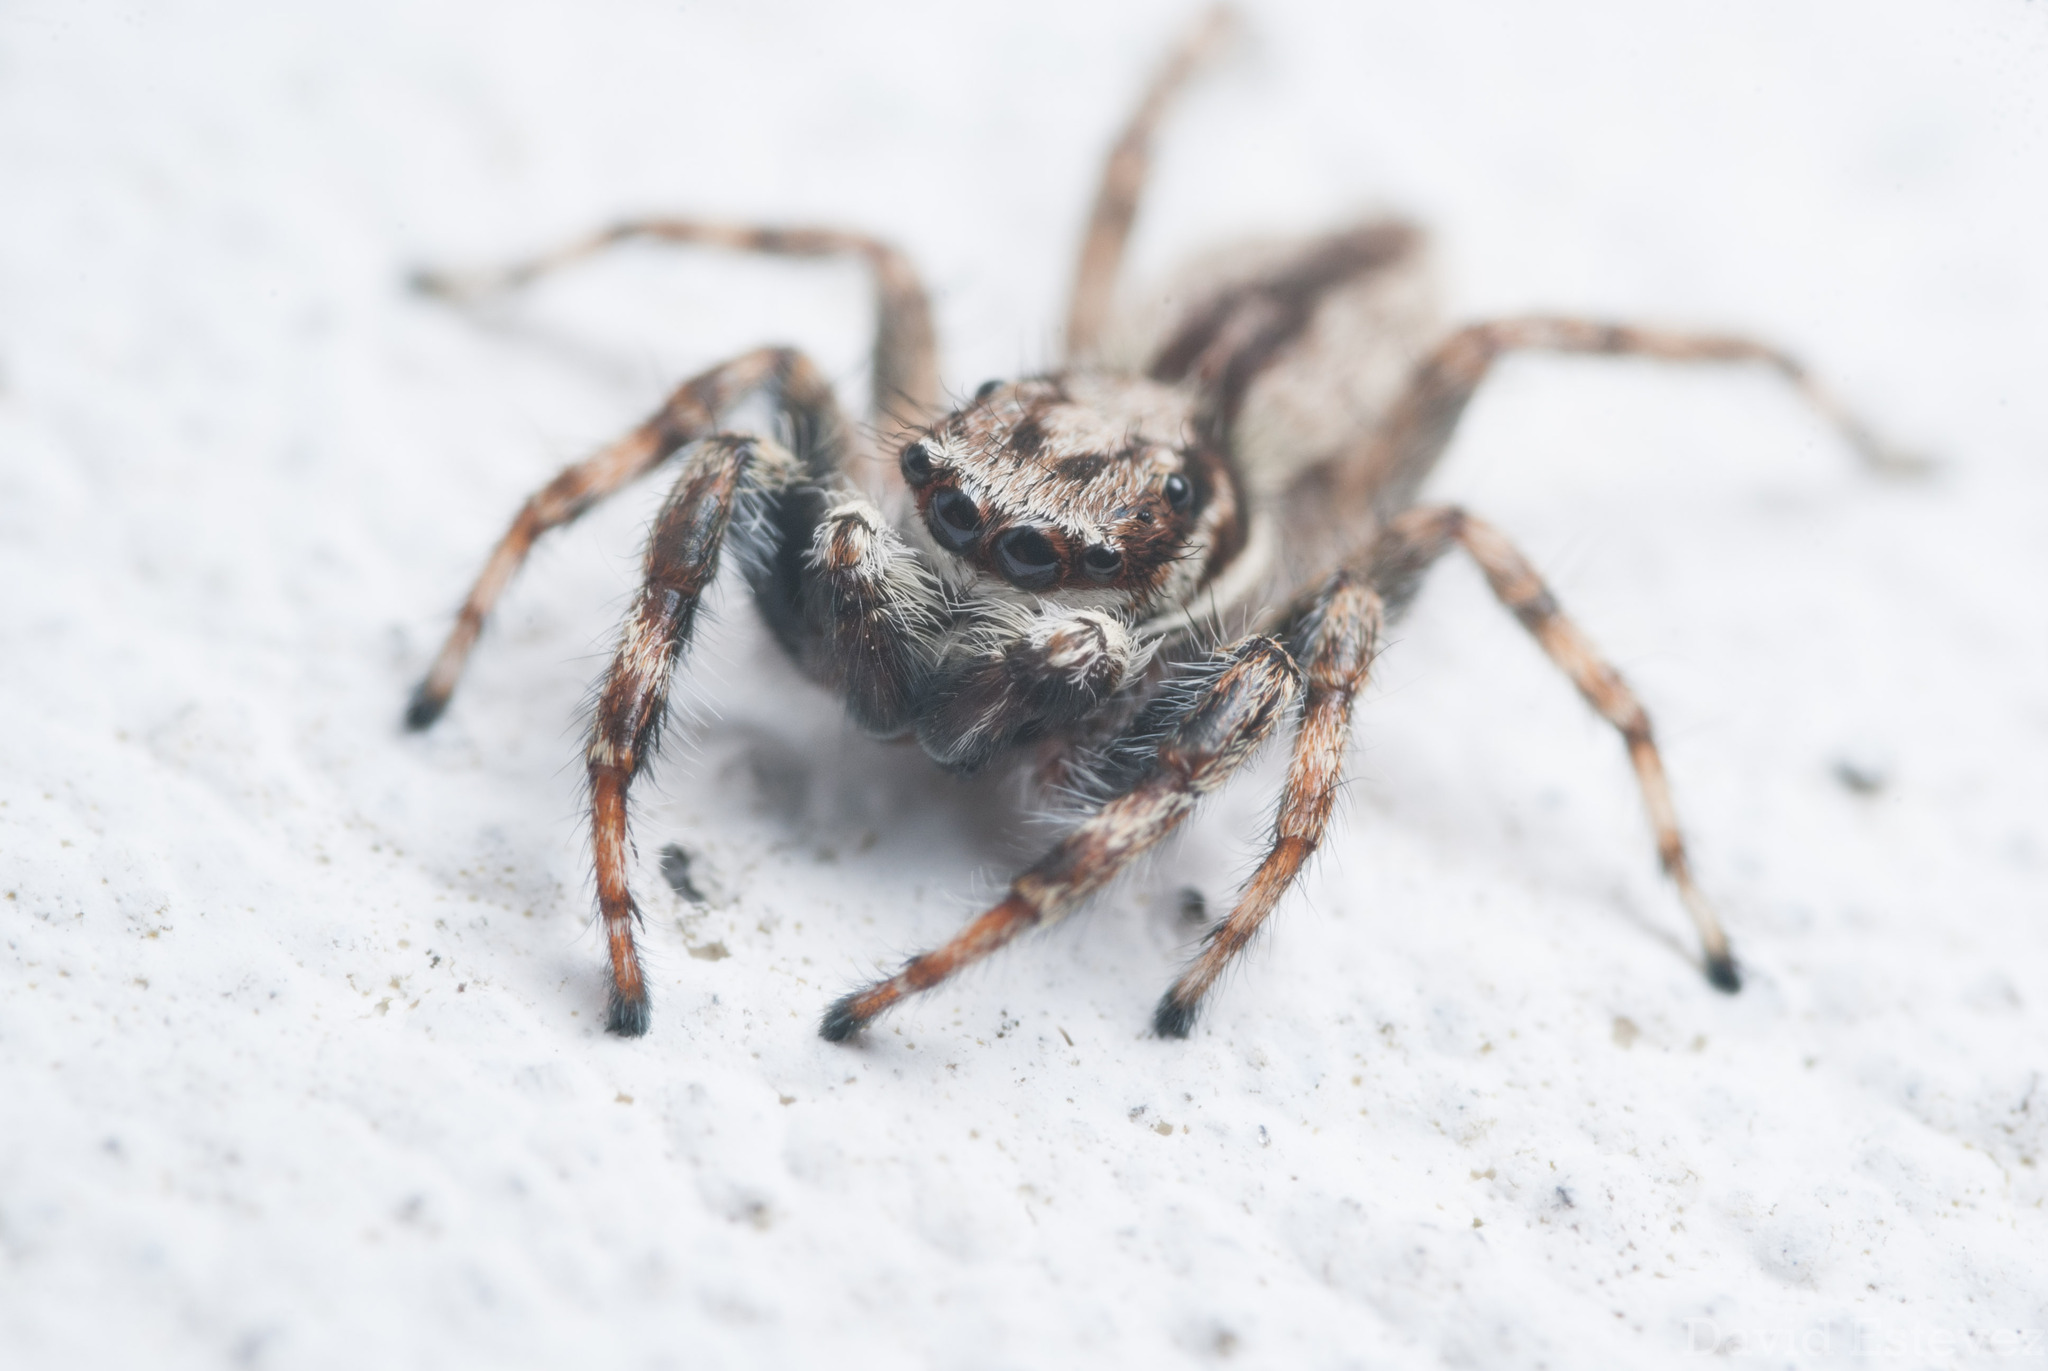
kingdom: Animalia
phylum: Arthropoda
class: Arachnida
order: Araneae
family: Salticidae
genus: Menemerus
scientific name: Menemerus bivittatus
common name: Gray wall jumper
